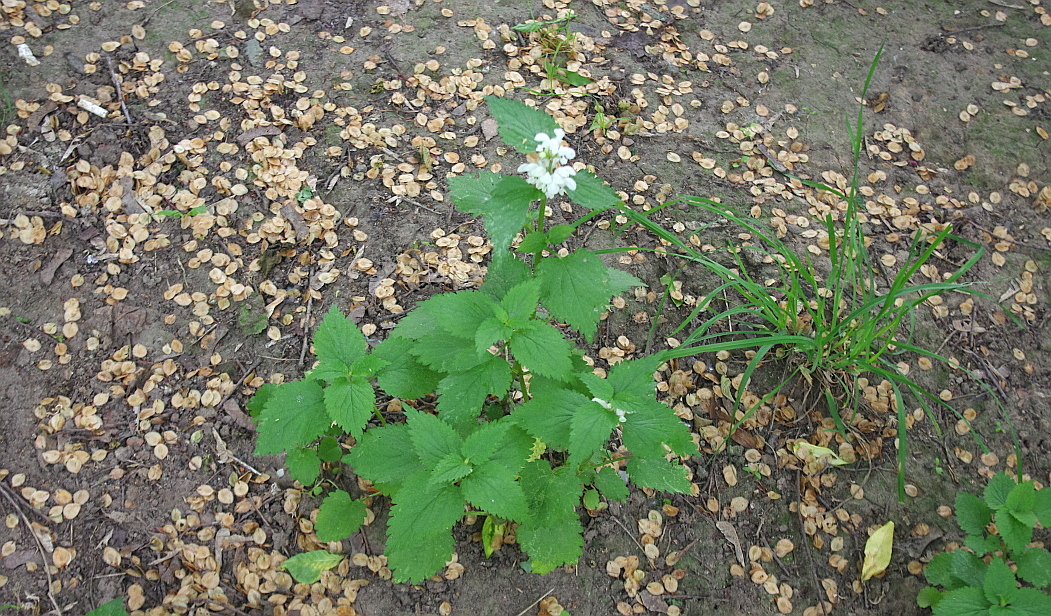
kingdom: Plantae
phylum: Tracheophyta
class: Magnoliopsida
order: Lamiales
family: Lamiaceae
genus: Lamium
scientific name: Lamium album
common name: White dead-nettle
